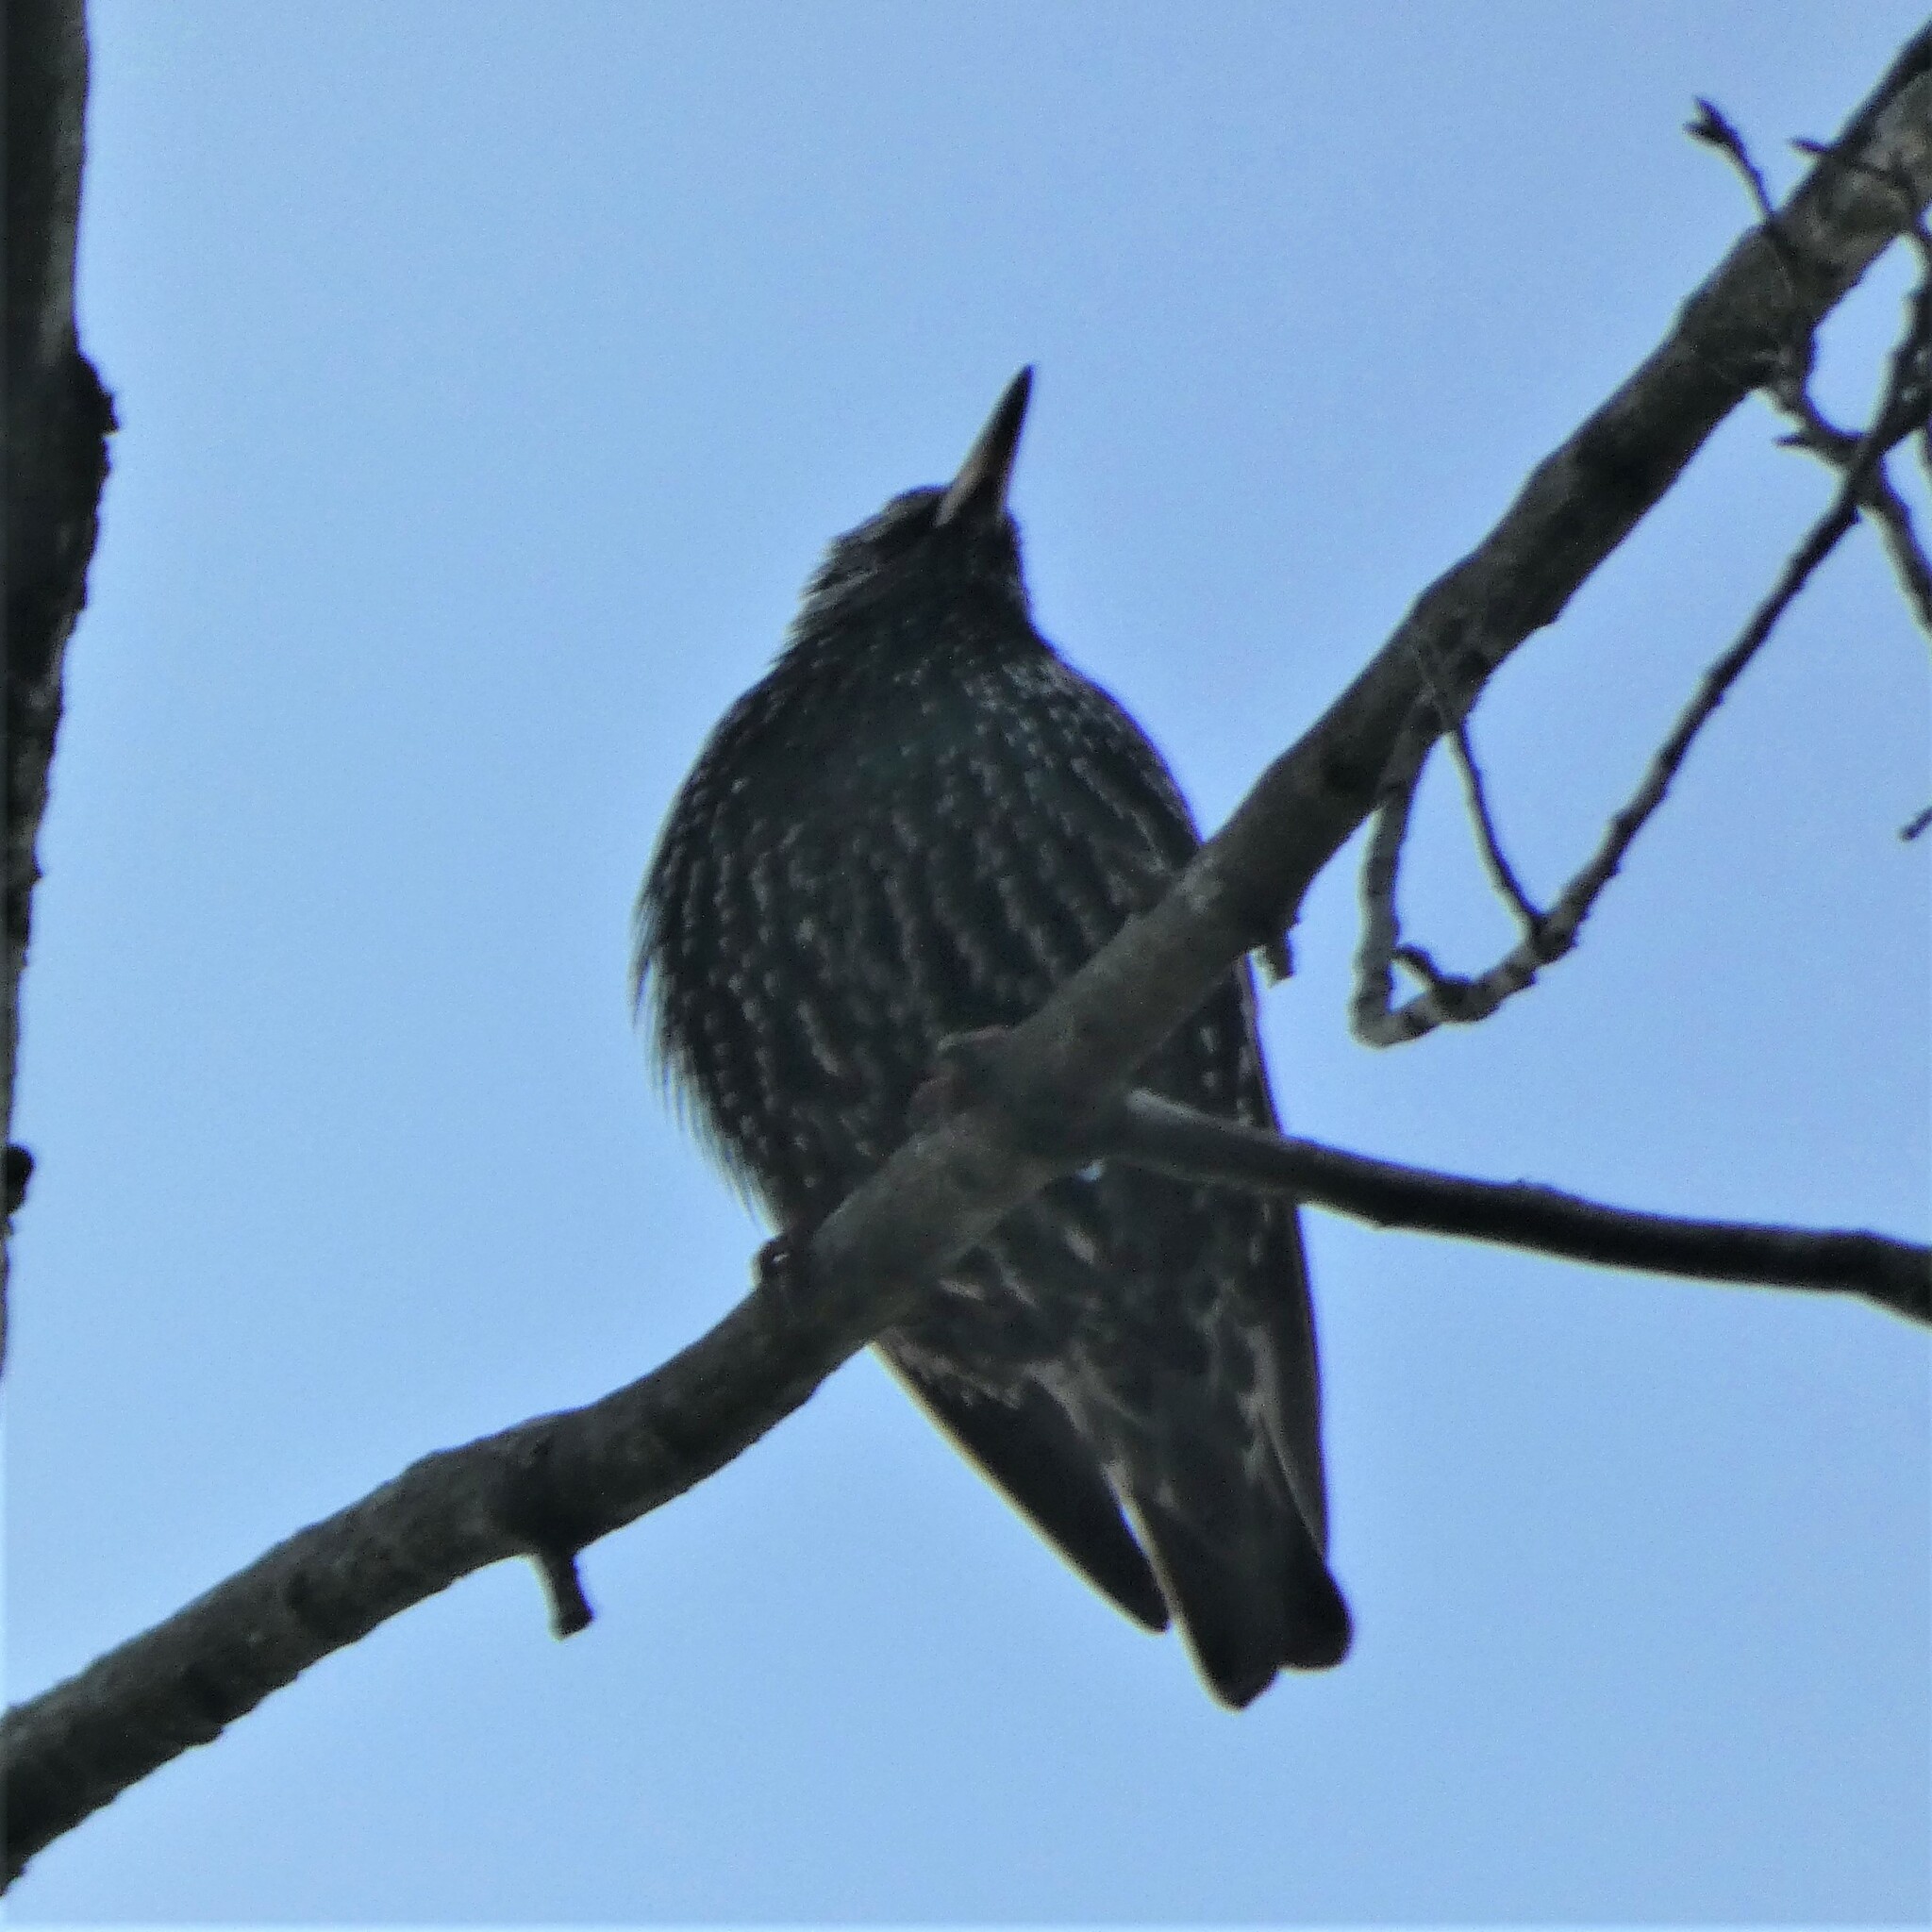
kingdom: Animalia
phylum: Chordata
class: Aves
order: Passeriformes
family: Sturnidae
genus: Sturnus
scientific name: Sturnus vulgaris
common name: Common starling
